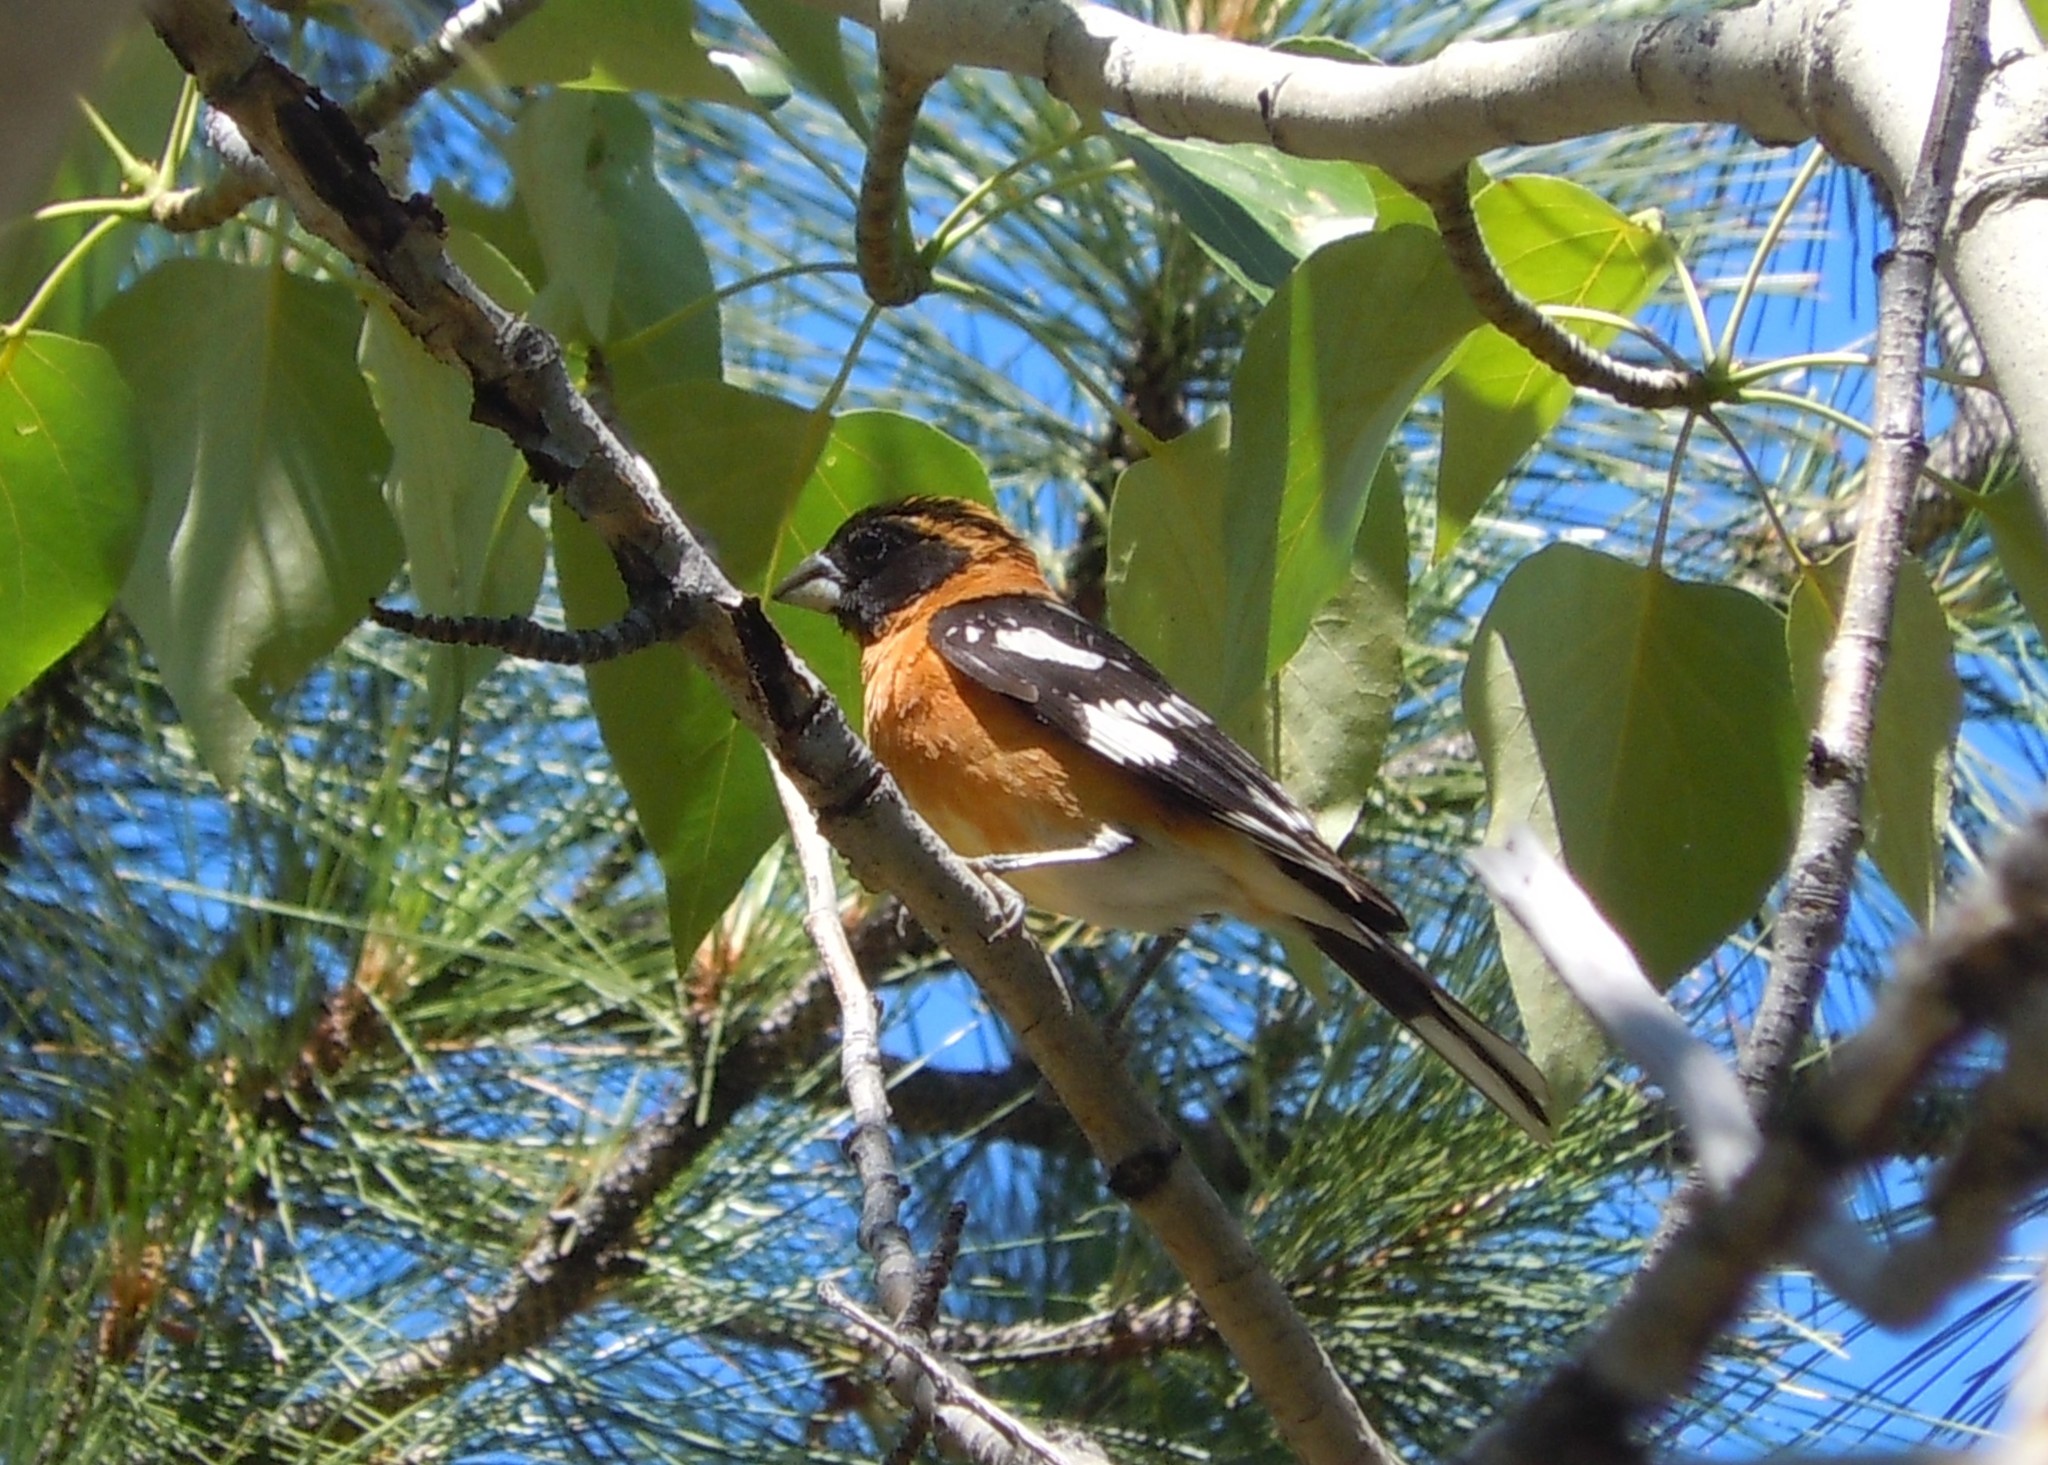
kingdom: Animalia
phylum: Chordata
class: Aves
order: Passeriformes
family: Cardinalidae
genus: Pheucticus
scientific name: Pheucticus melanocephalus
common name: Black-headed grosbeak
